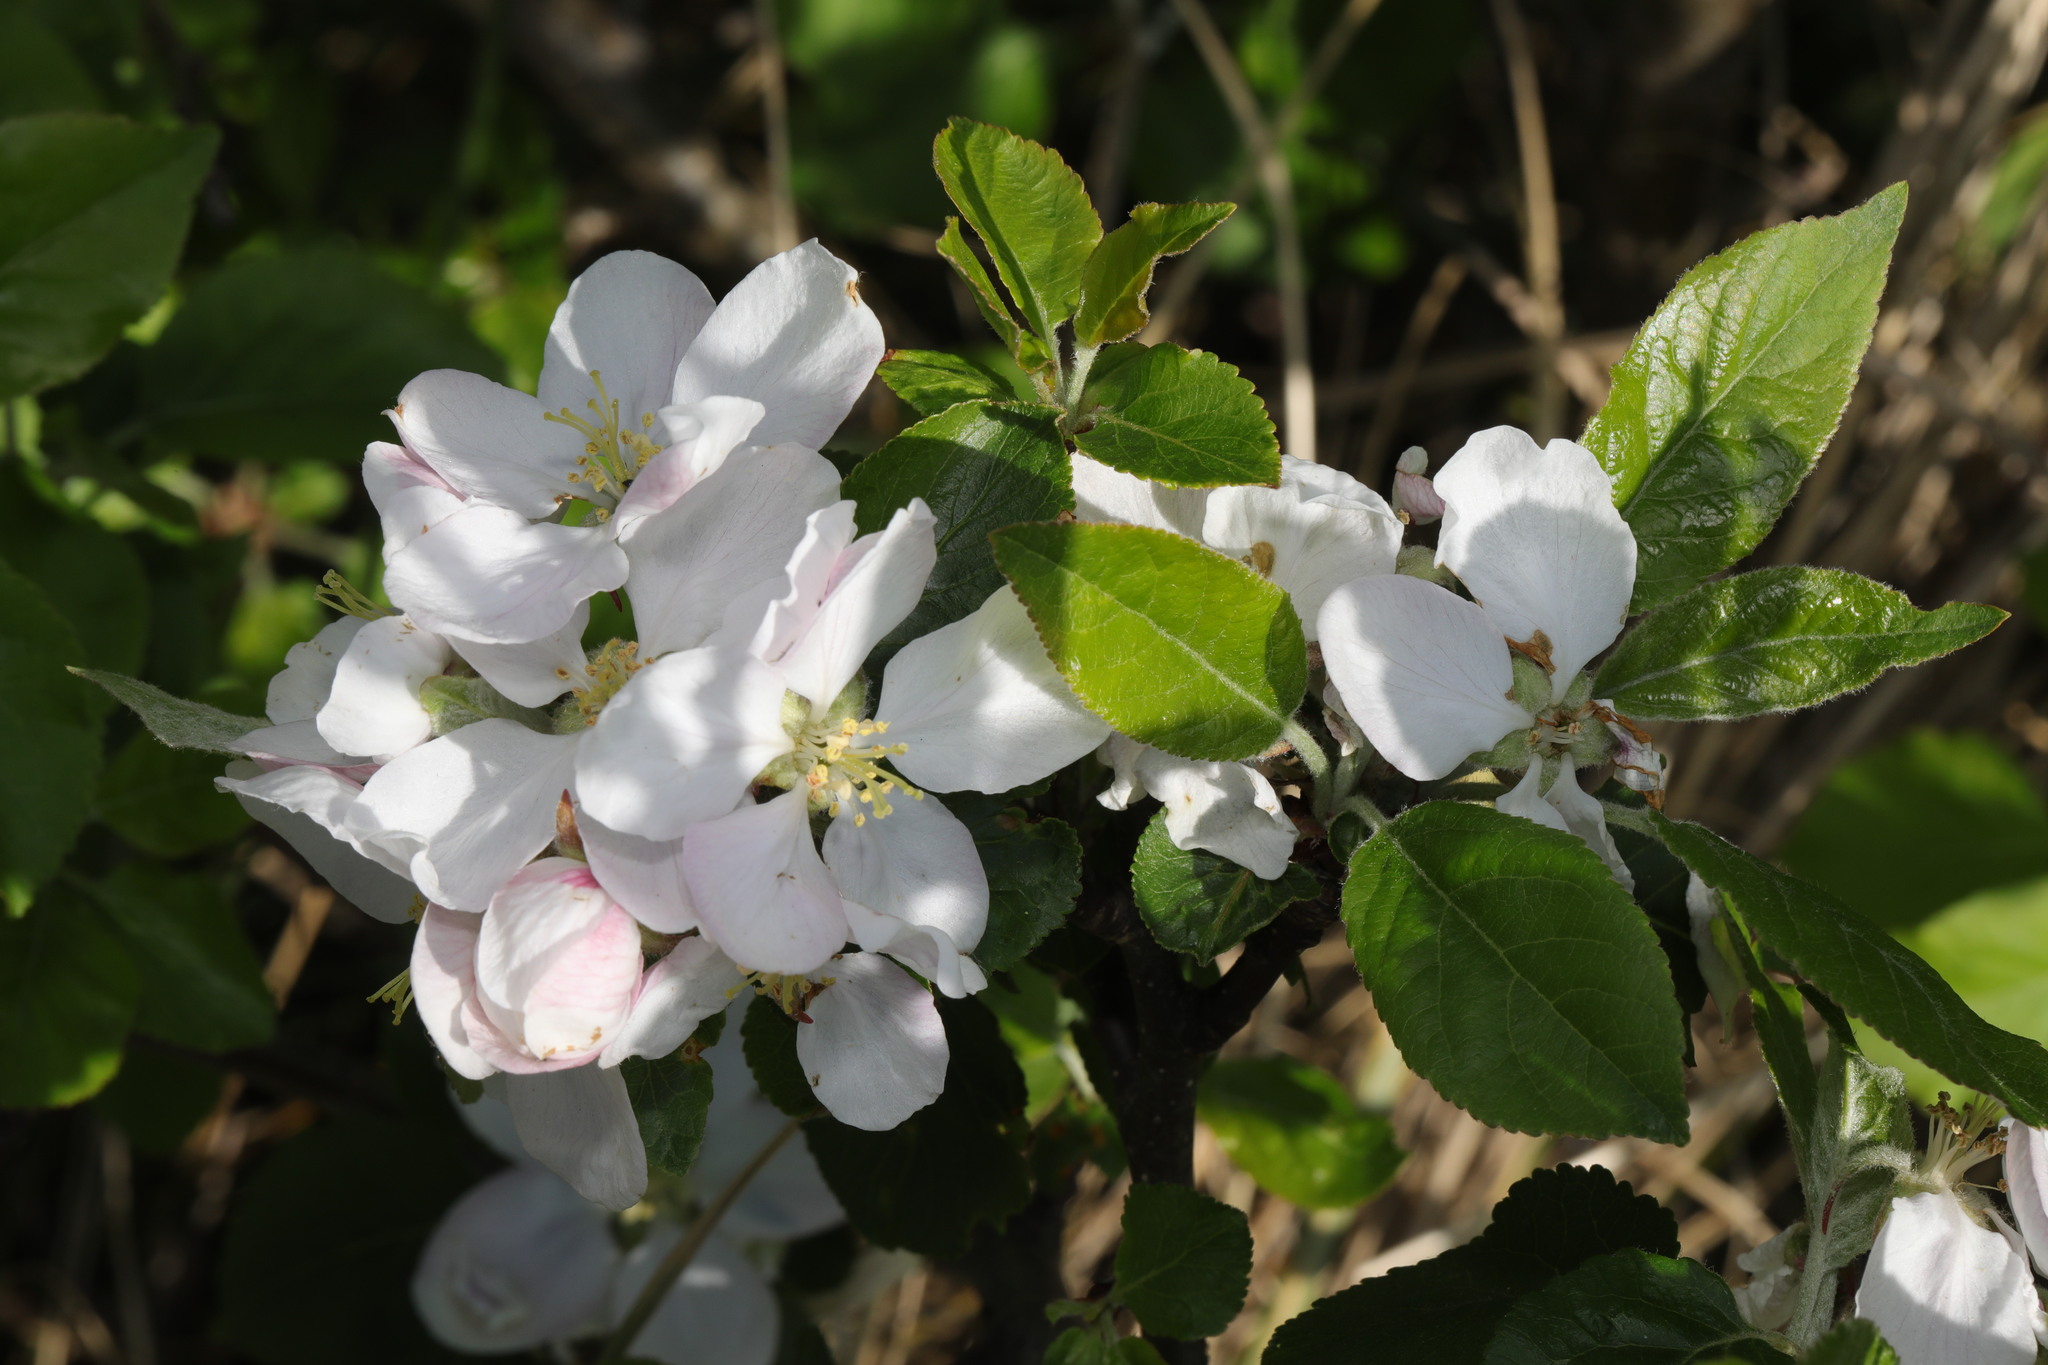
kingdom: Plantae
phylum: Tracheophyta
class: Magnoliopsida
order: Rosales
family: Rosaceae
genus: Malus
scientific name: Malus domestica
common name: Apple
